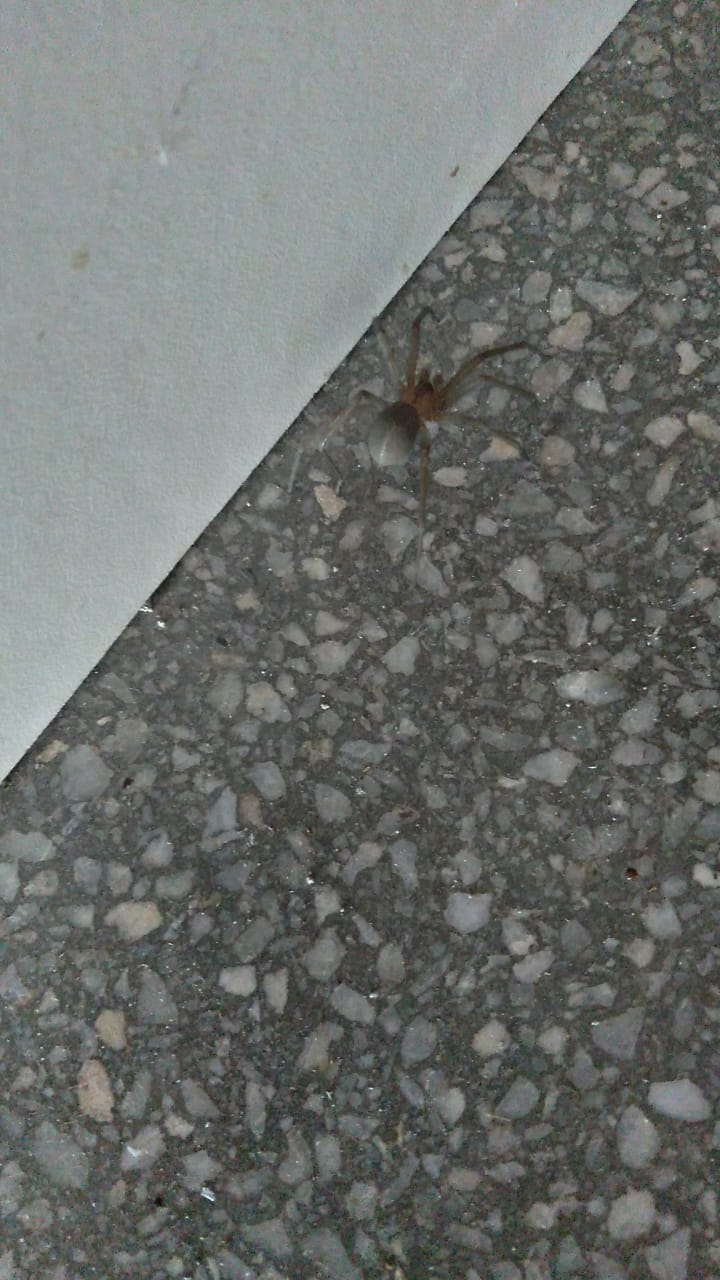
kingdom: Animalia
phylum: Arthropoda
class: Arachnida
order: Araneae
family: Sicariidae
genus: Loxosceles
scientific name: Loxosceles laeta
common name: Chilean recluse spider
